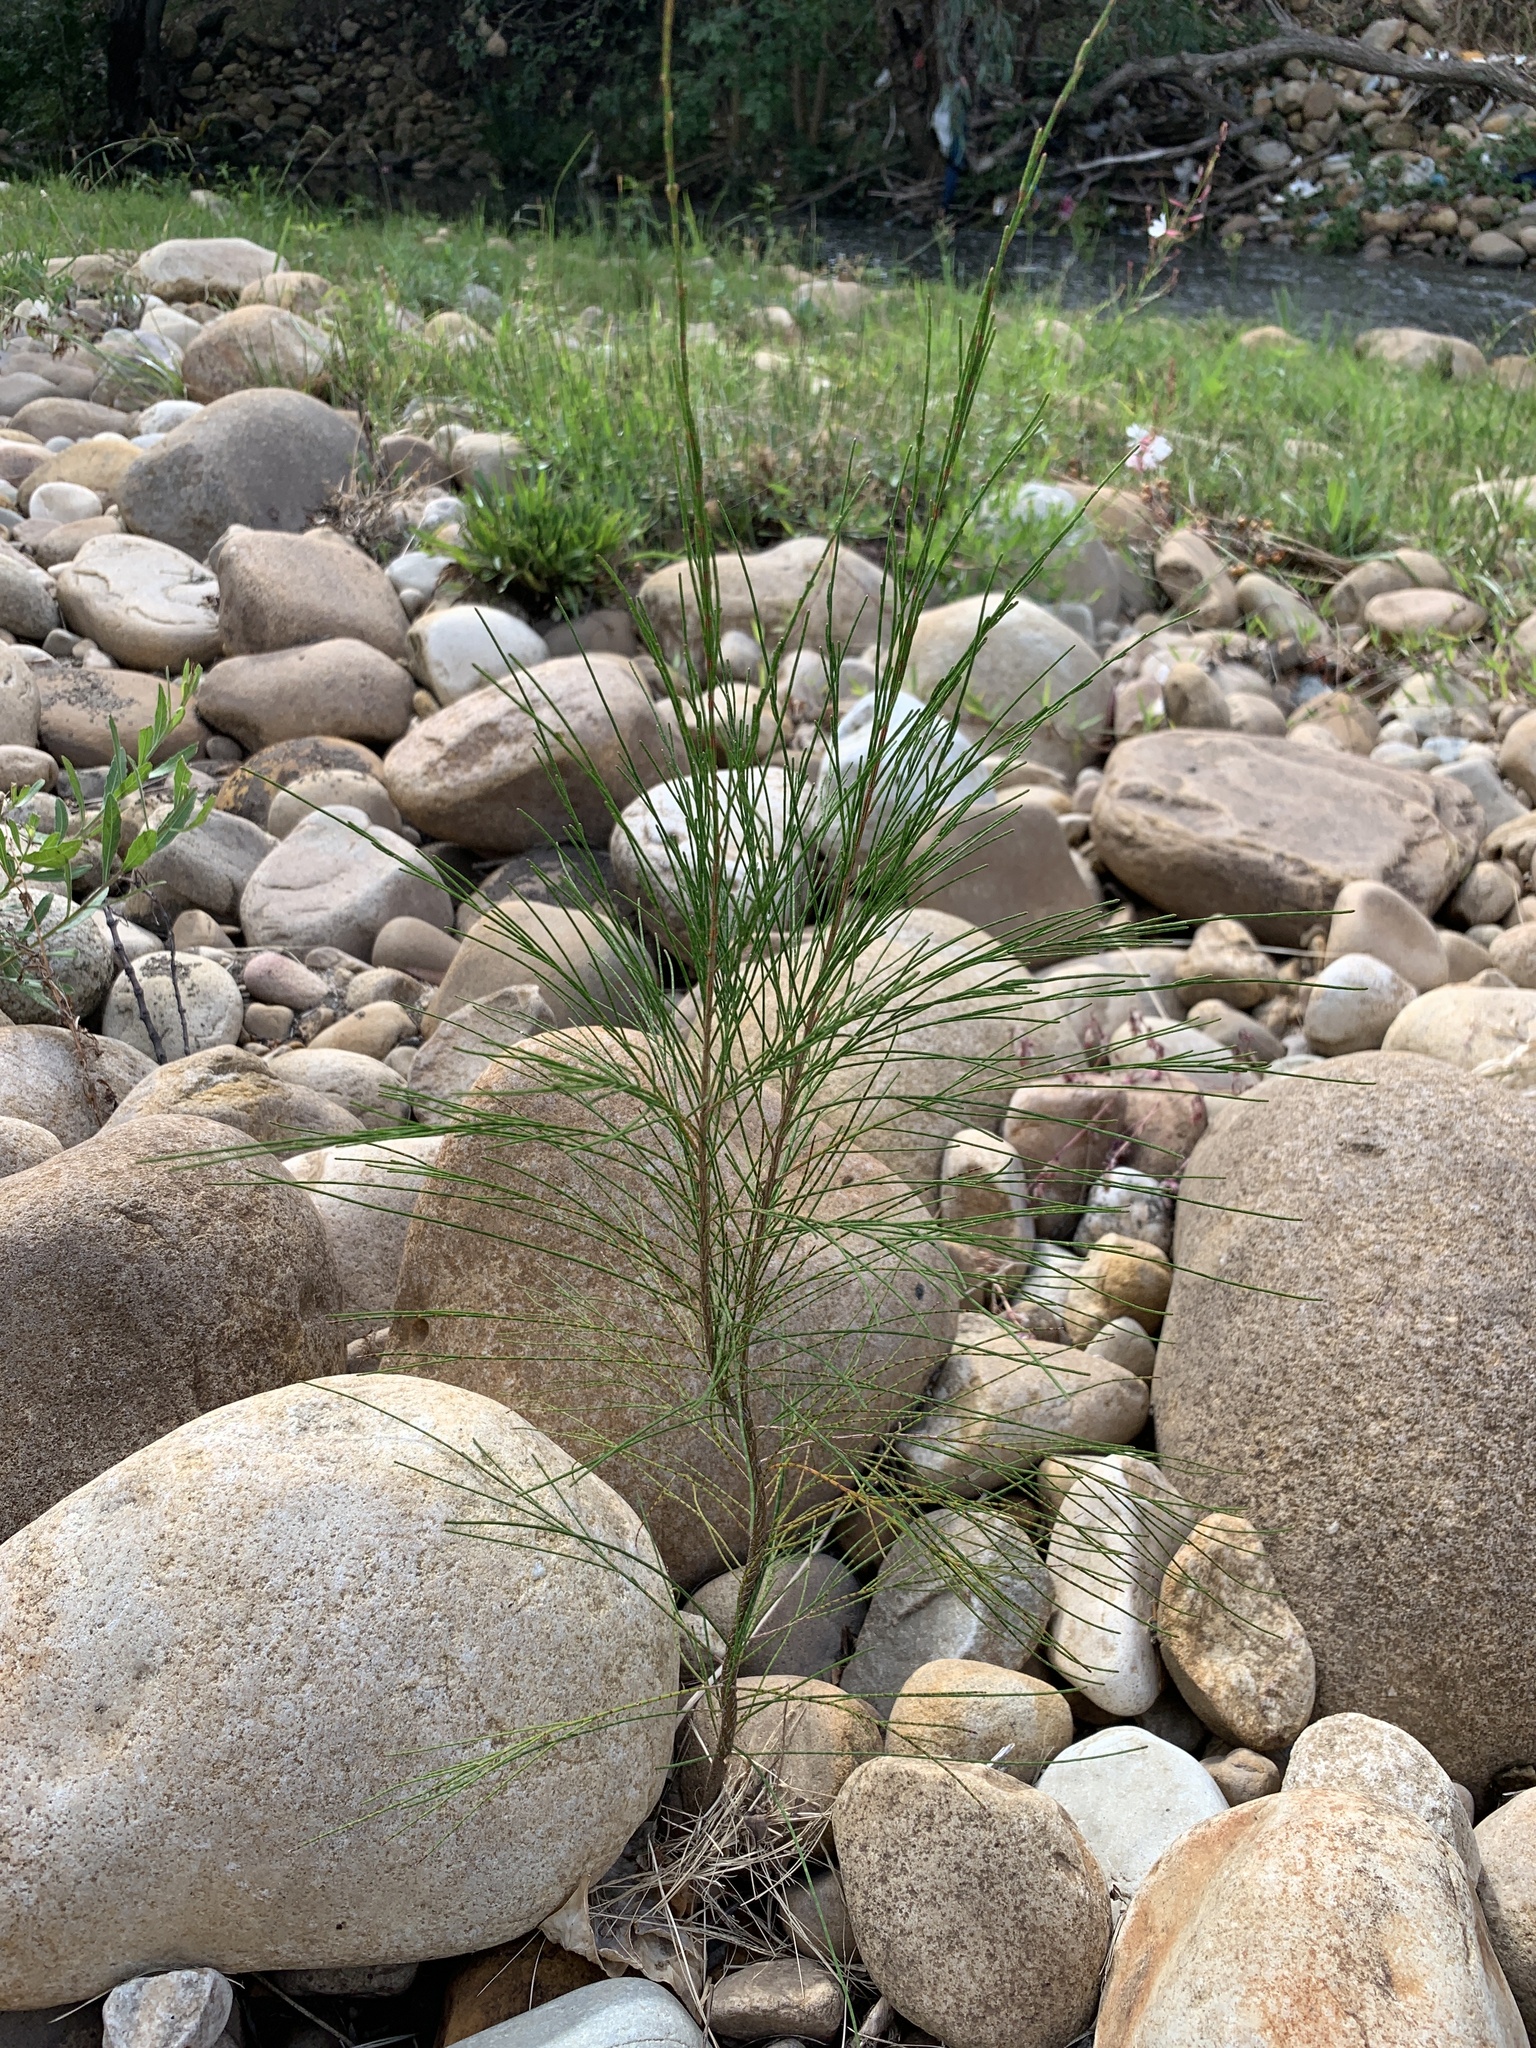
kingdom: Plantae
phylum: Tracheophyta
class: Magnoliopsida
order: Fagales
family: Casuarinaceae
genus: Casuarina
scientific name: Casuarina cunninghamiana
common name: River sheoak
